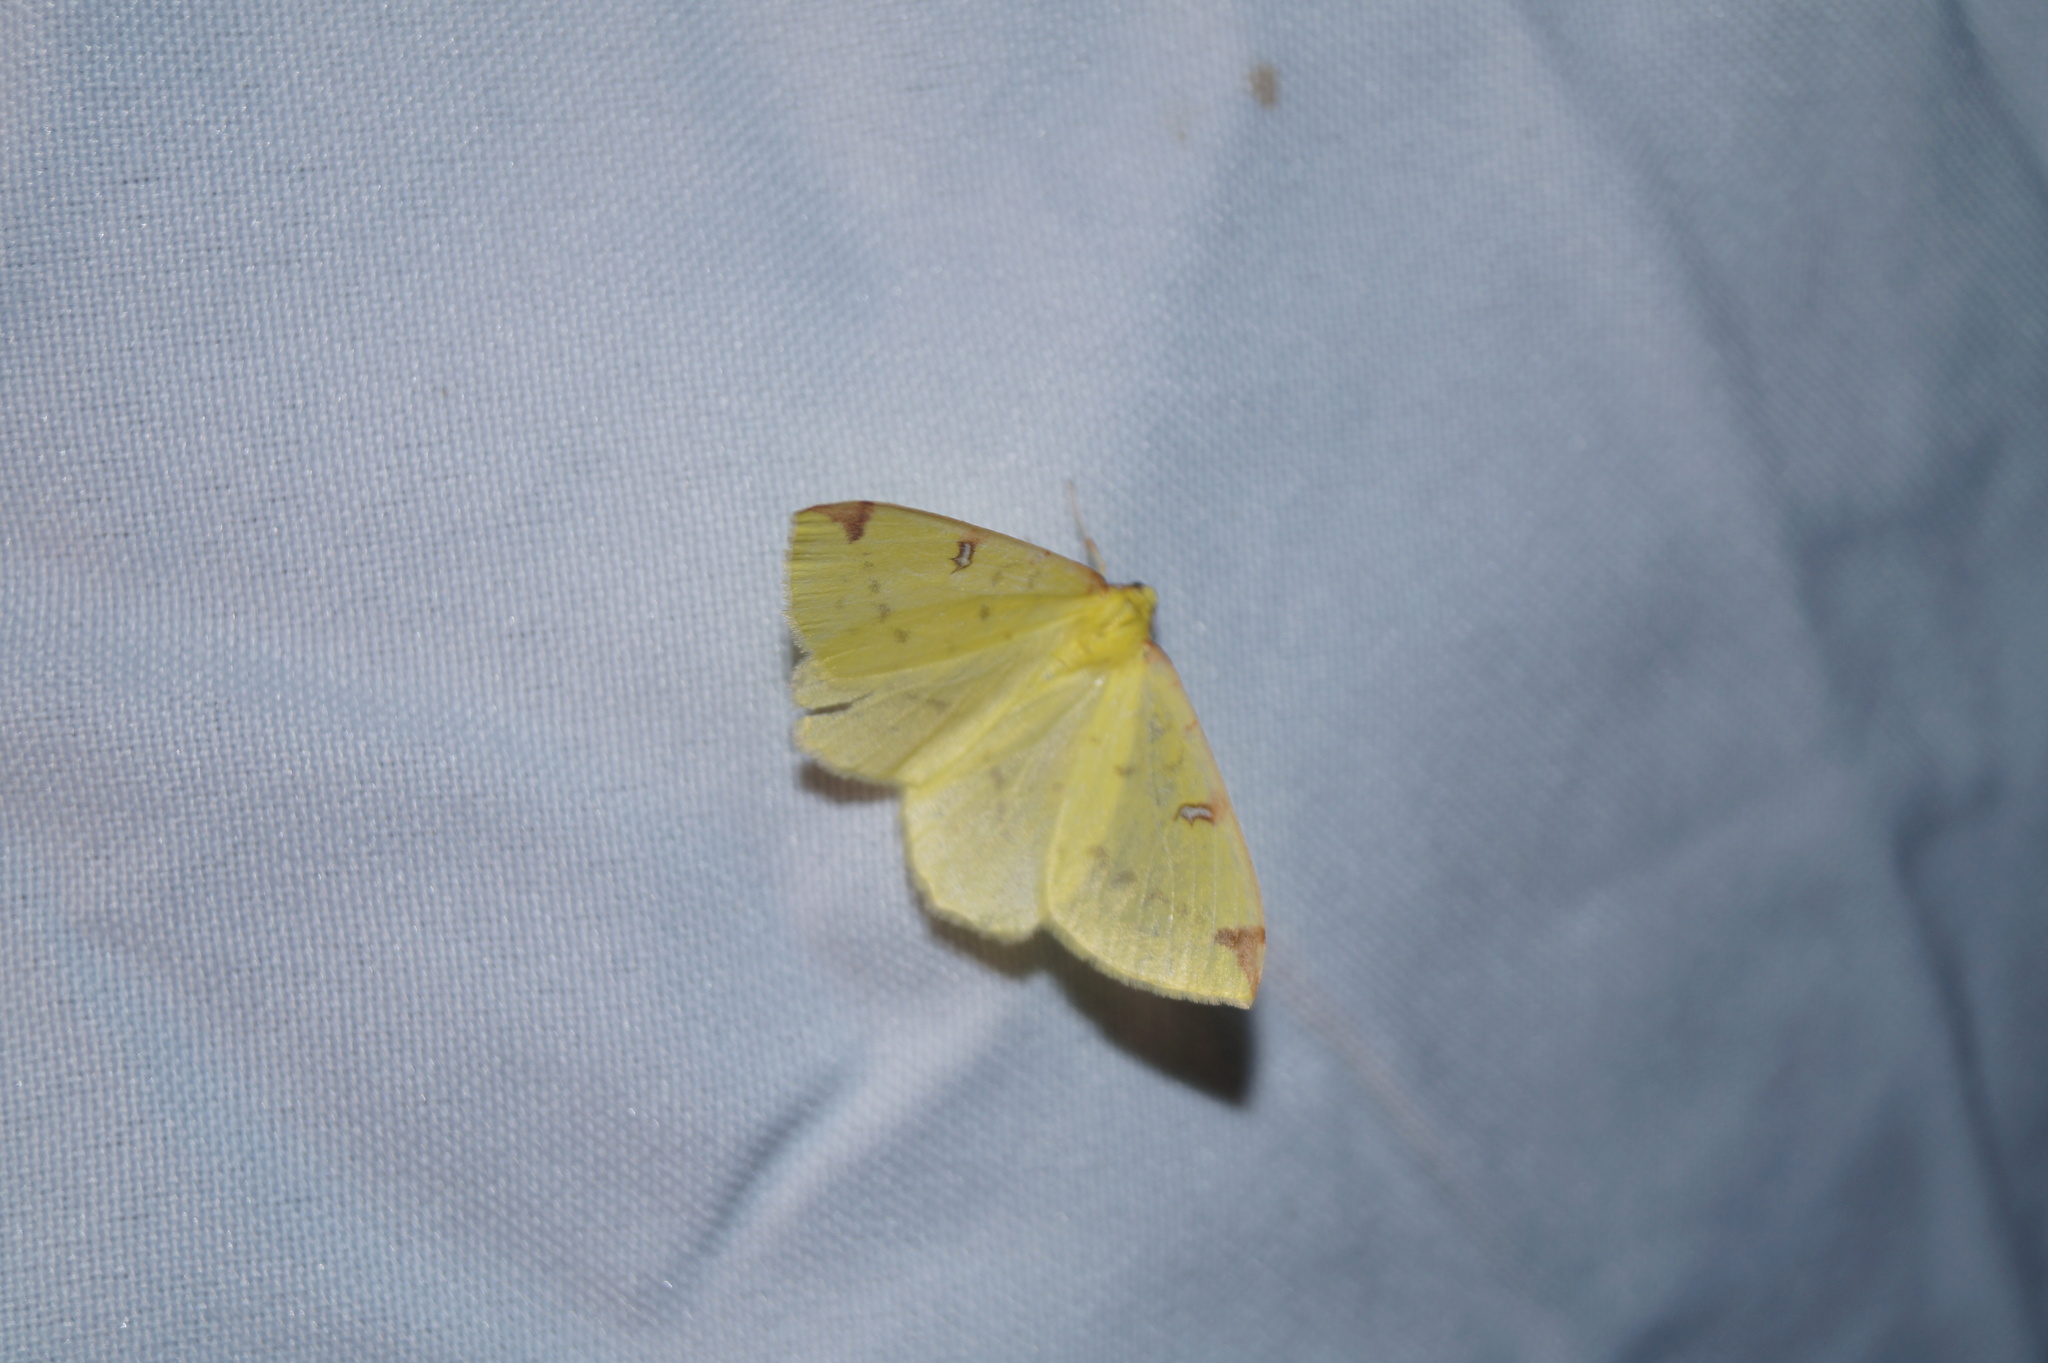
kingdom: Animalia
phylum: Arthropoda
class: Insecta
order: Lepidoptera
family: Geometridae
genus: Opisthograptis
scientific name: Opisthograptis luteolata
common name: Brimstone moth
